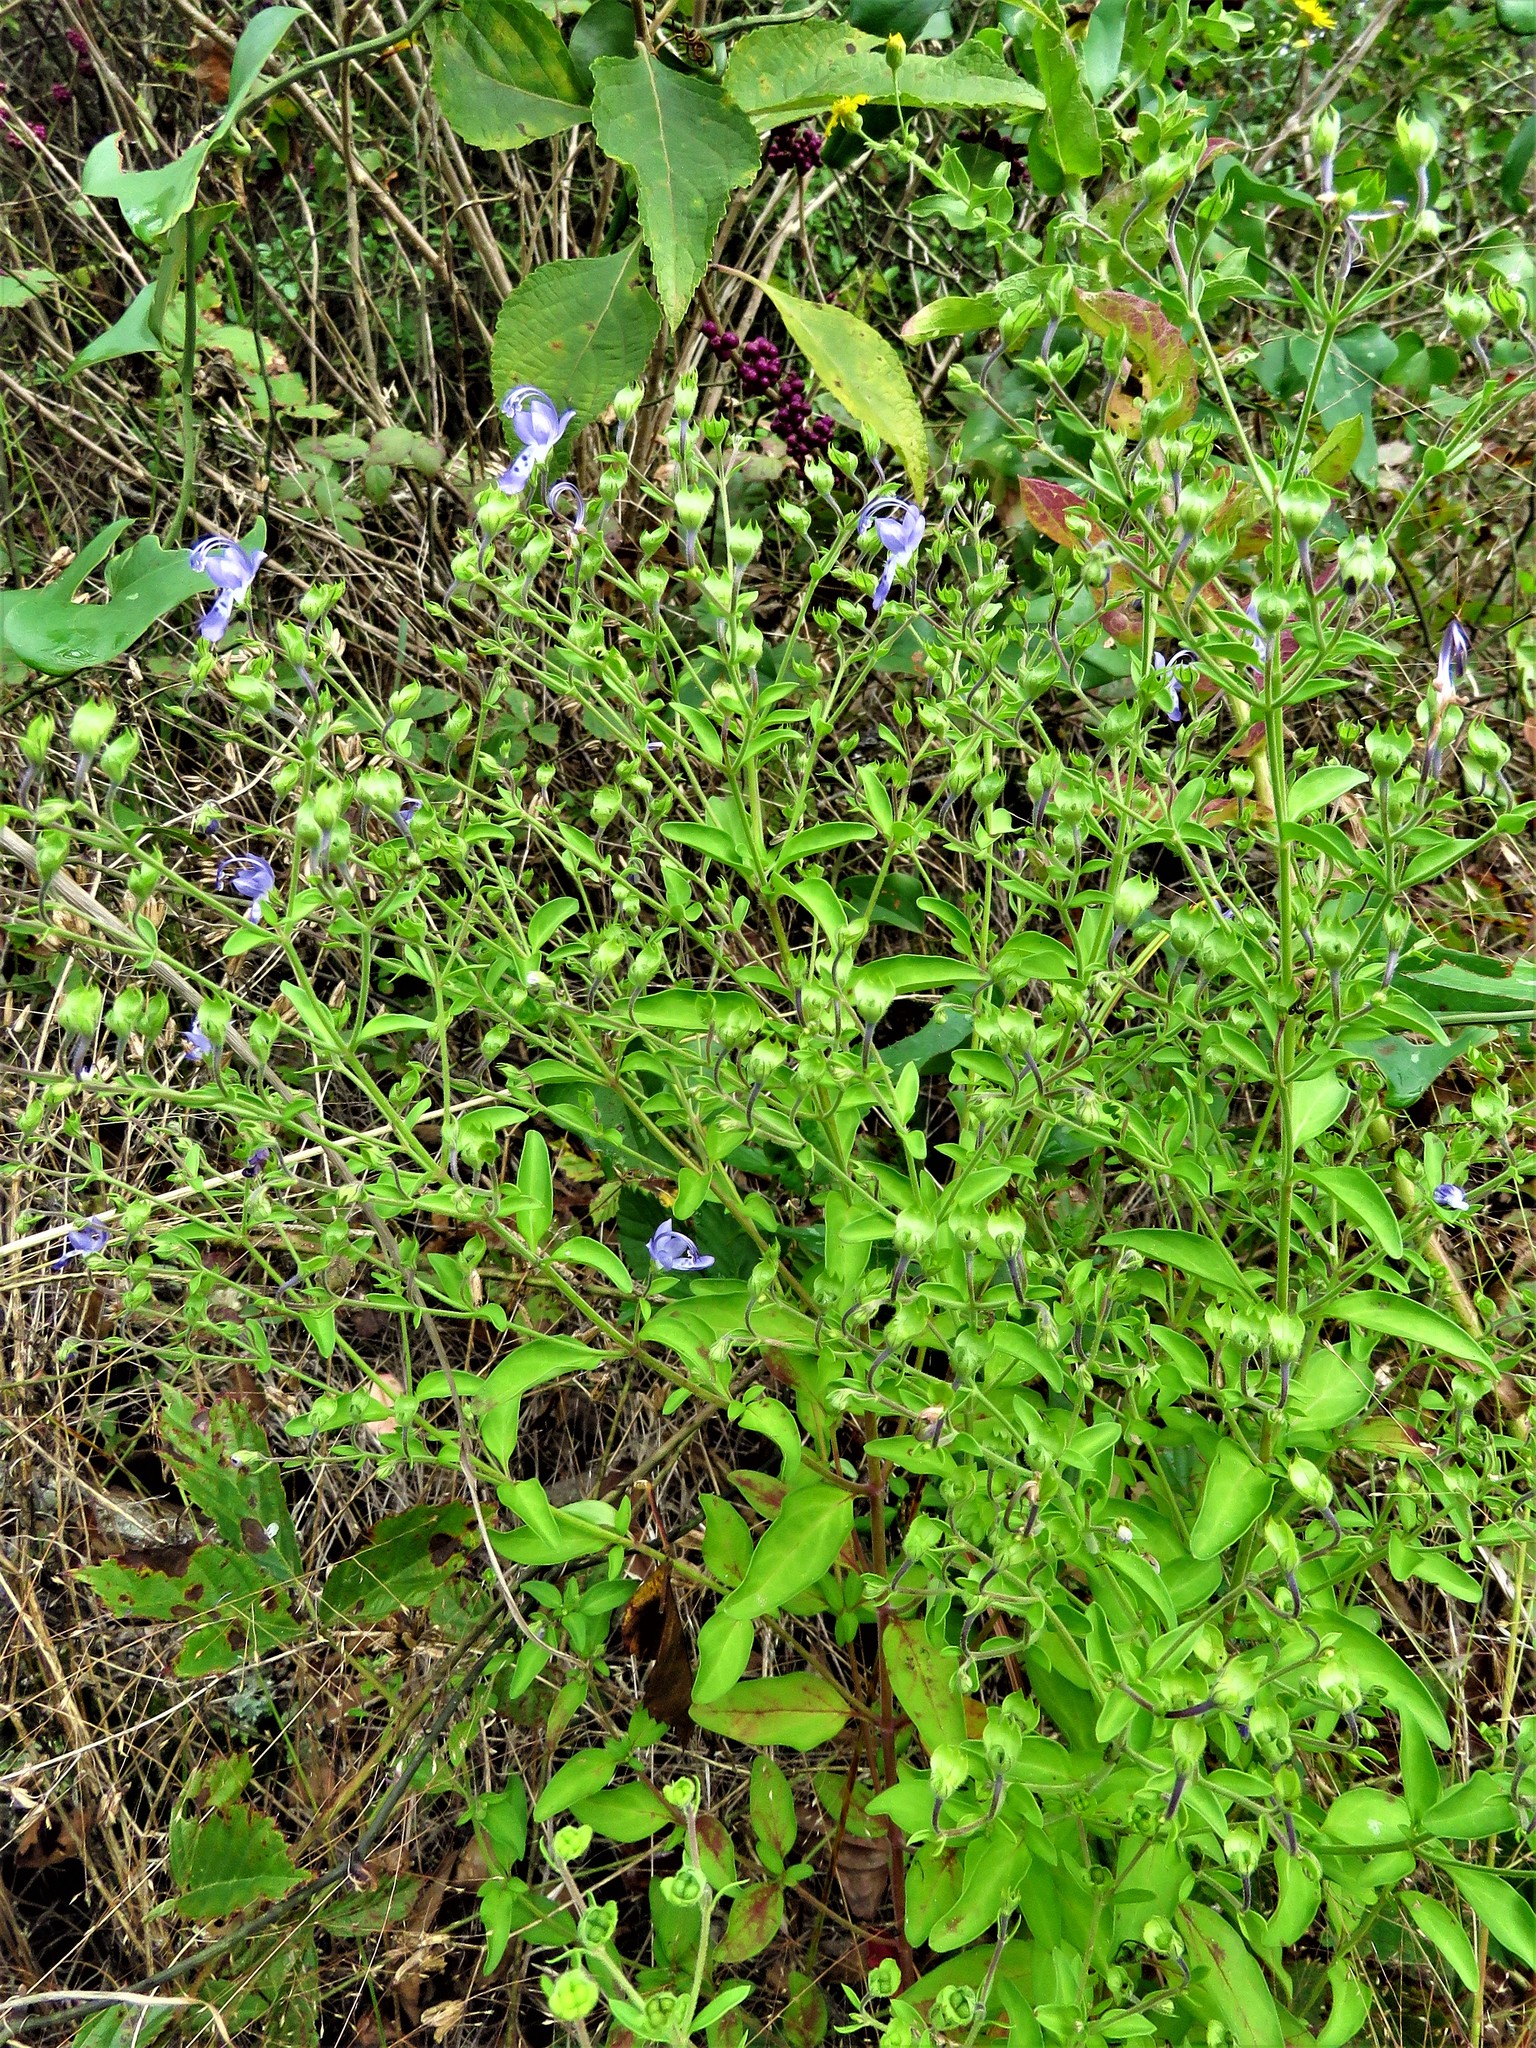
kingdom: Plantae
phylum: Tracheophyta
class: Magnoliopsida
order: Lamiales
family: Lamiaceae
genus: Trichostema
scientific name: Trichostema dichotomum
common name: Bastard pennyroyal
